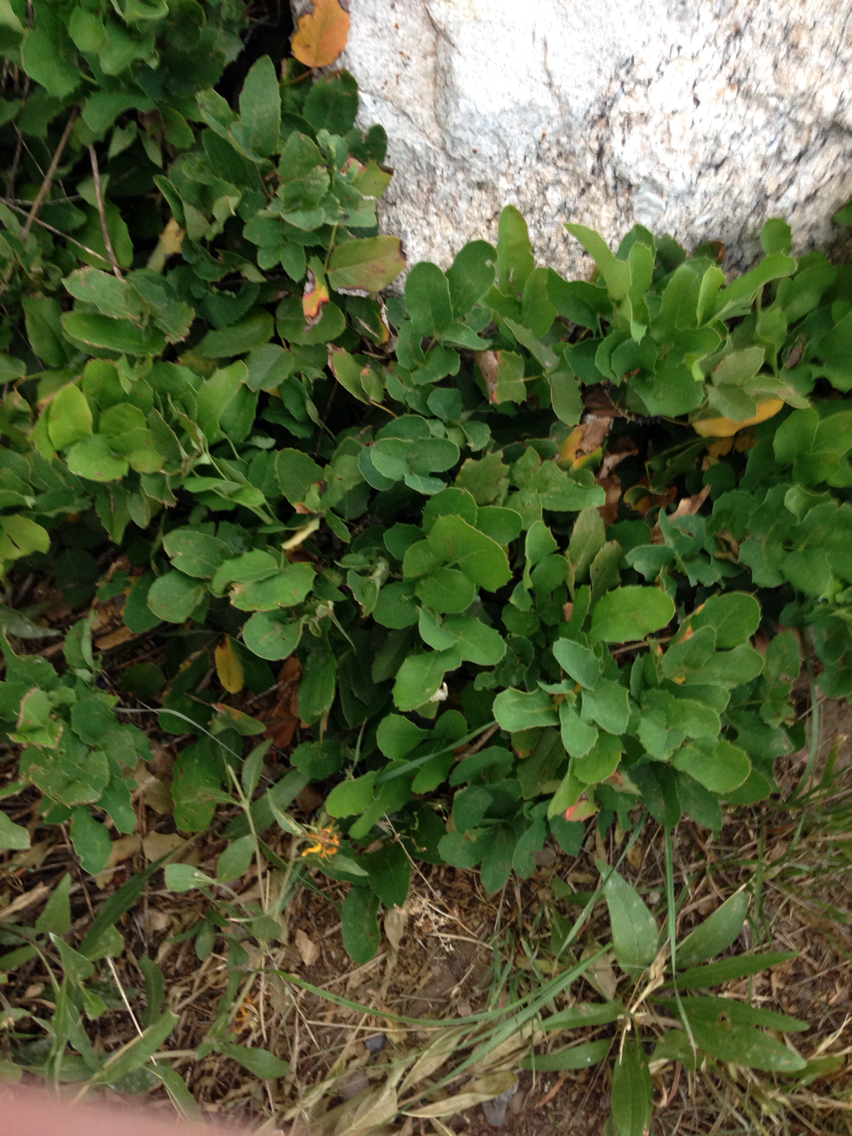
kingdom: Plantae
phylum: Tracheophyta
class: Magnoliopsida
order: Ranunculales
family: Berberidaceae
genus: Mahonia
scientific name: Mahonia repens
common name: Creeping oregon-grape
